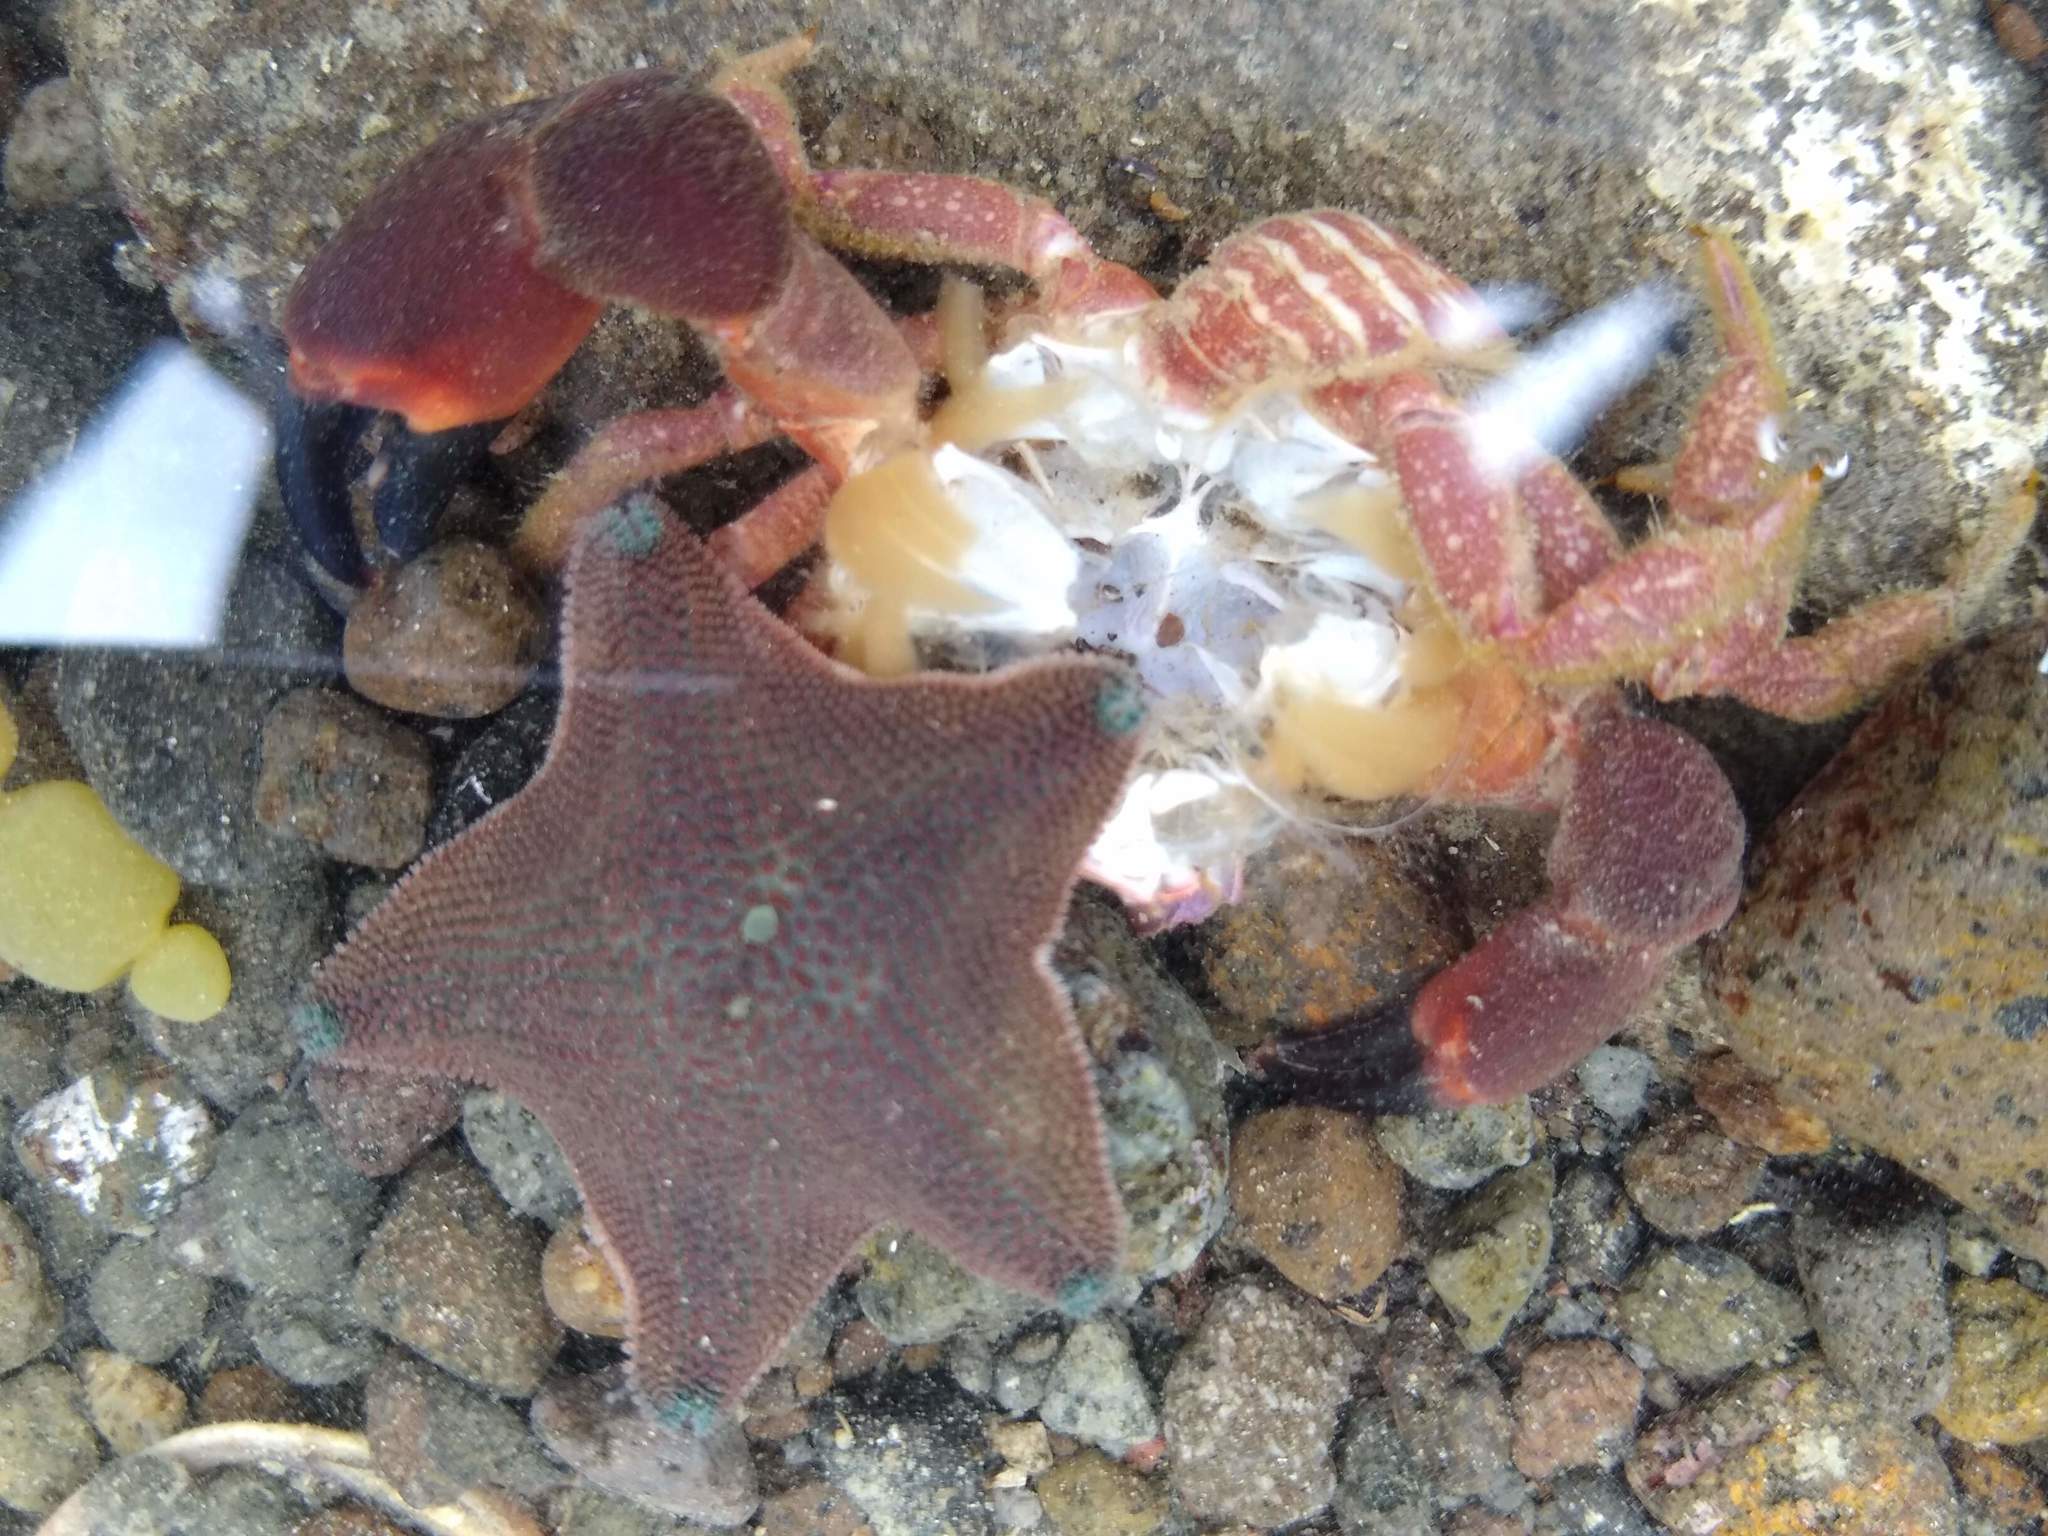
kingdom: Animalia
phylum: Echinodermata
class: Asteroidea
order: Valvatida
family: Asterinidae
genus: Patiriella
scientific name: Patiriella regularis
